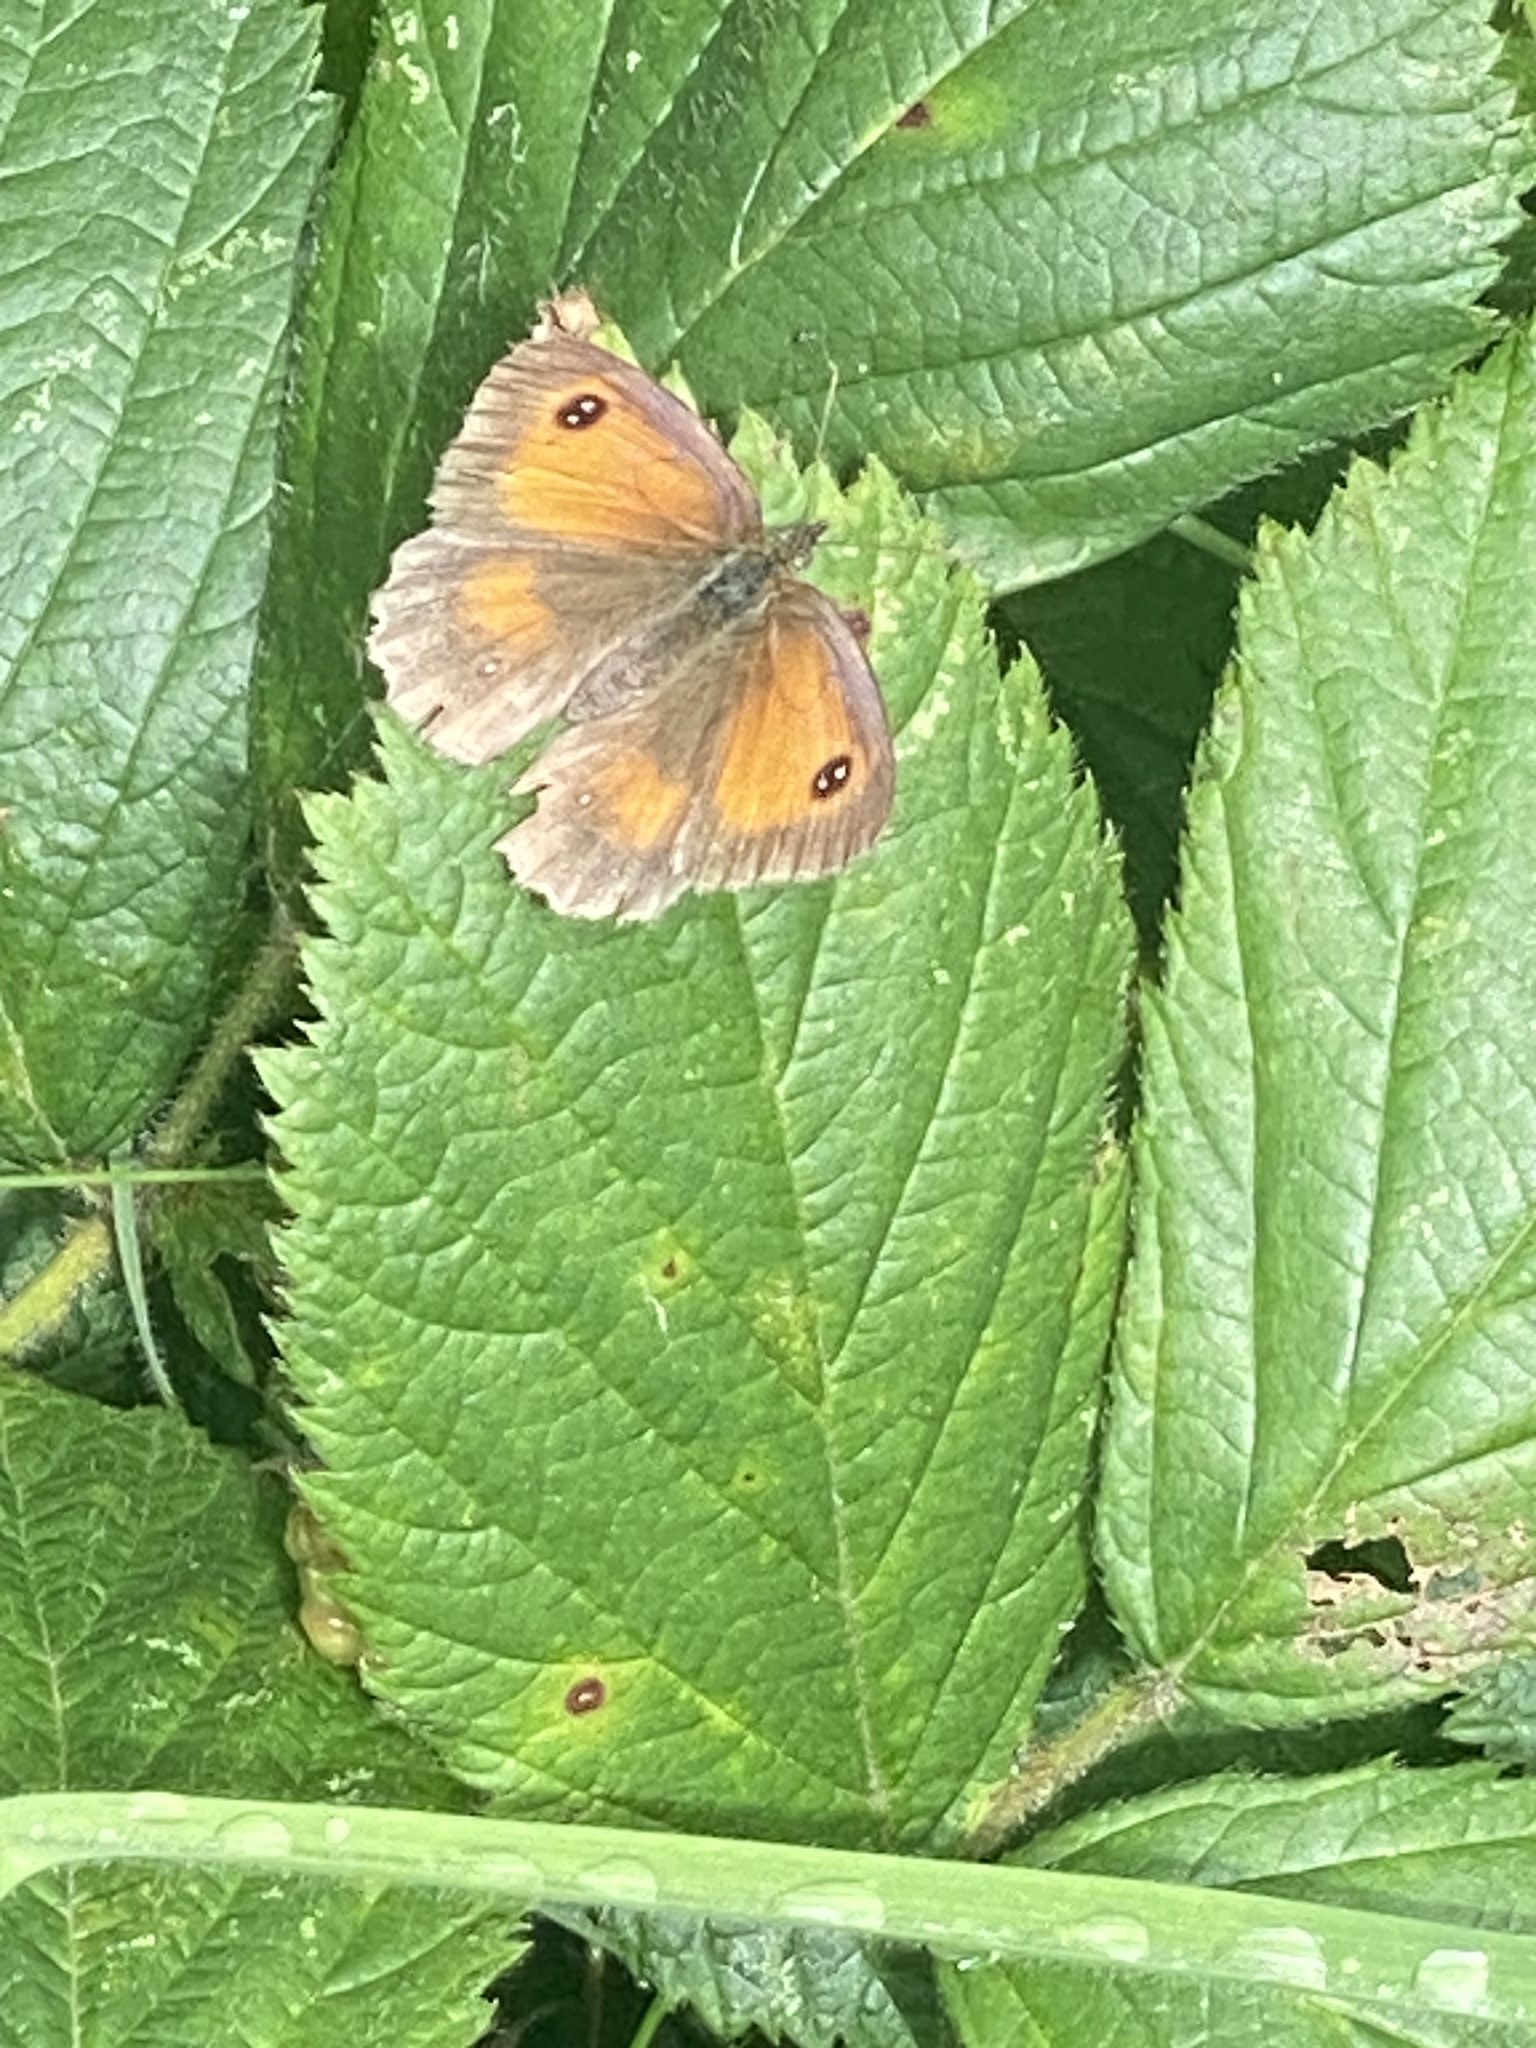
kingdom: Animalia
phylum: Arthropoda
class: Insecta
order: Lepidoptera
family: Nymphalidae
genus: Pyronia
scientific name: Pyronia tithonus
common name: Gatekeeper
